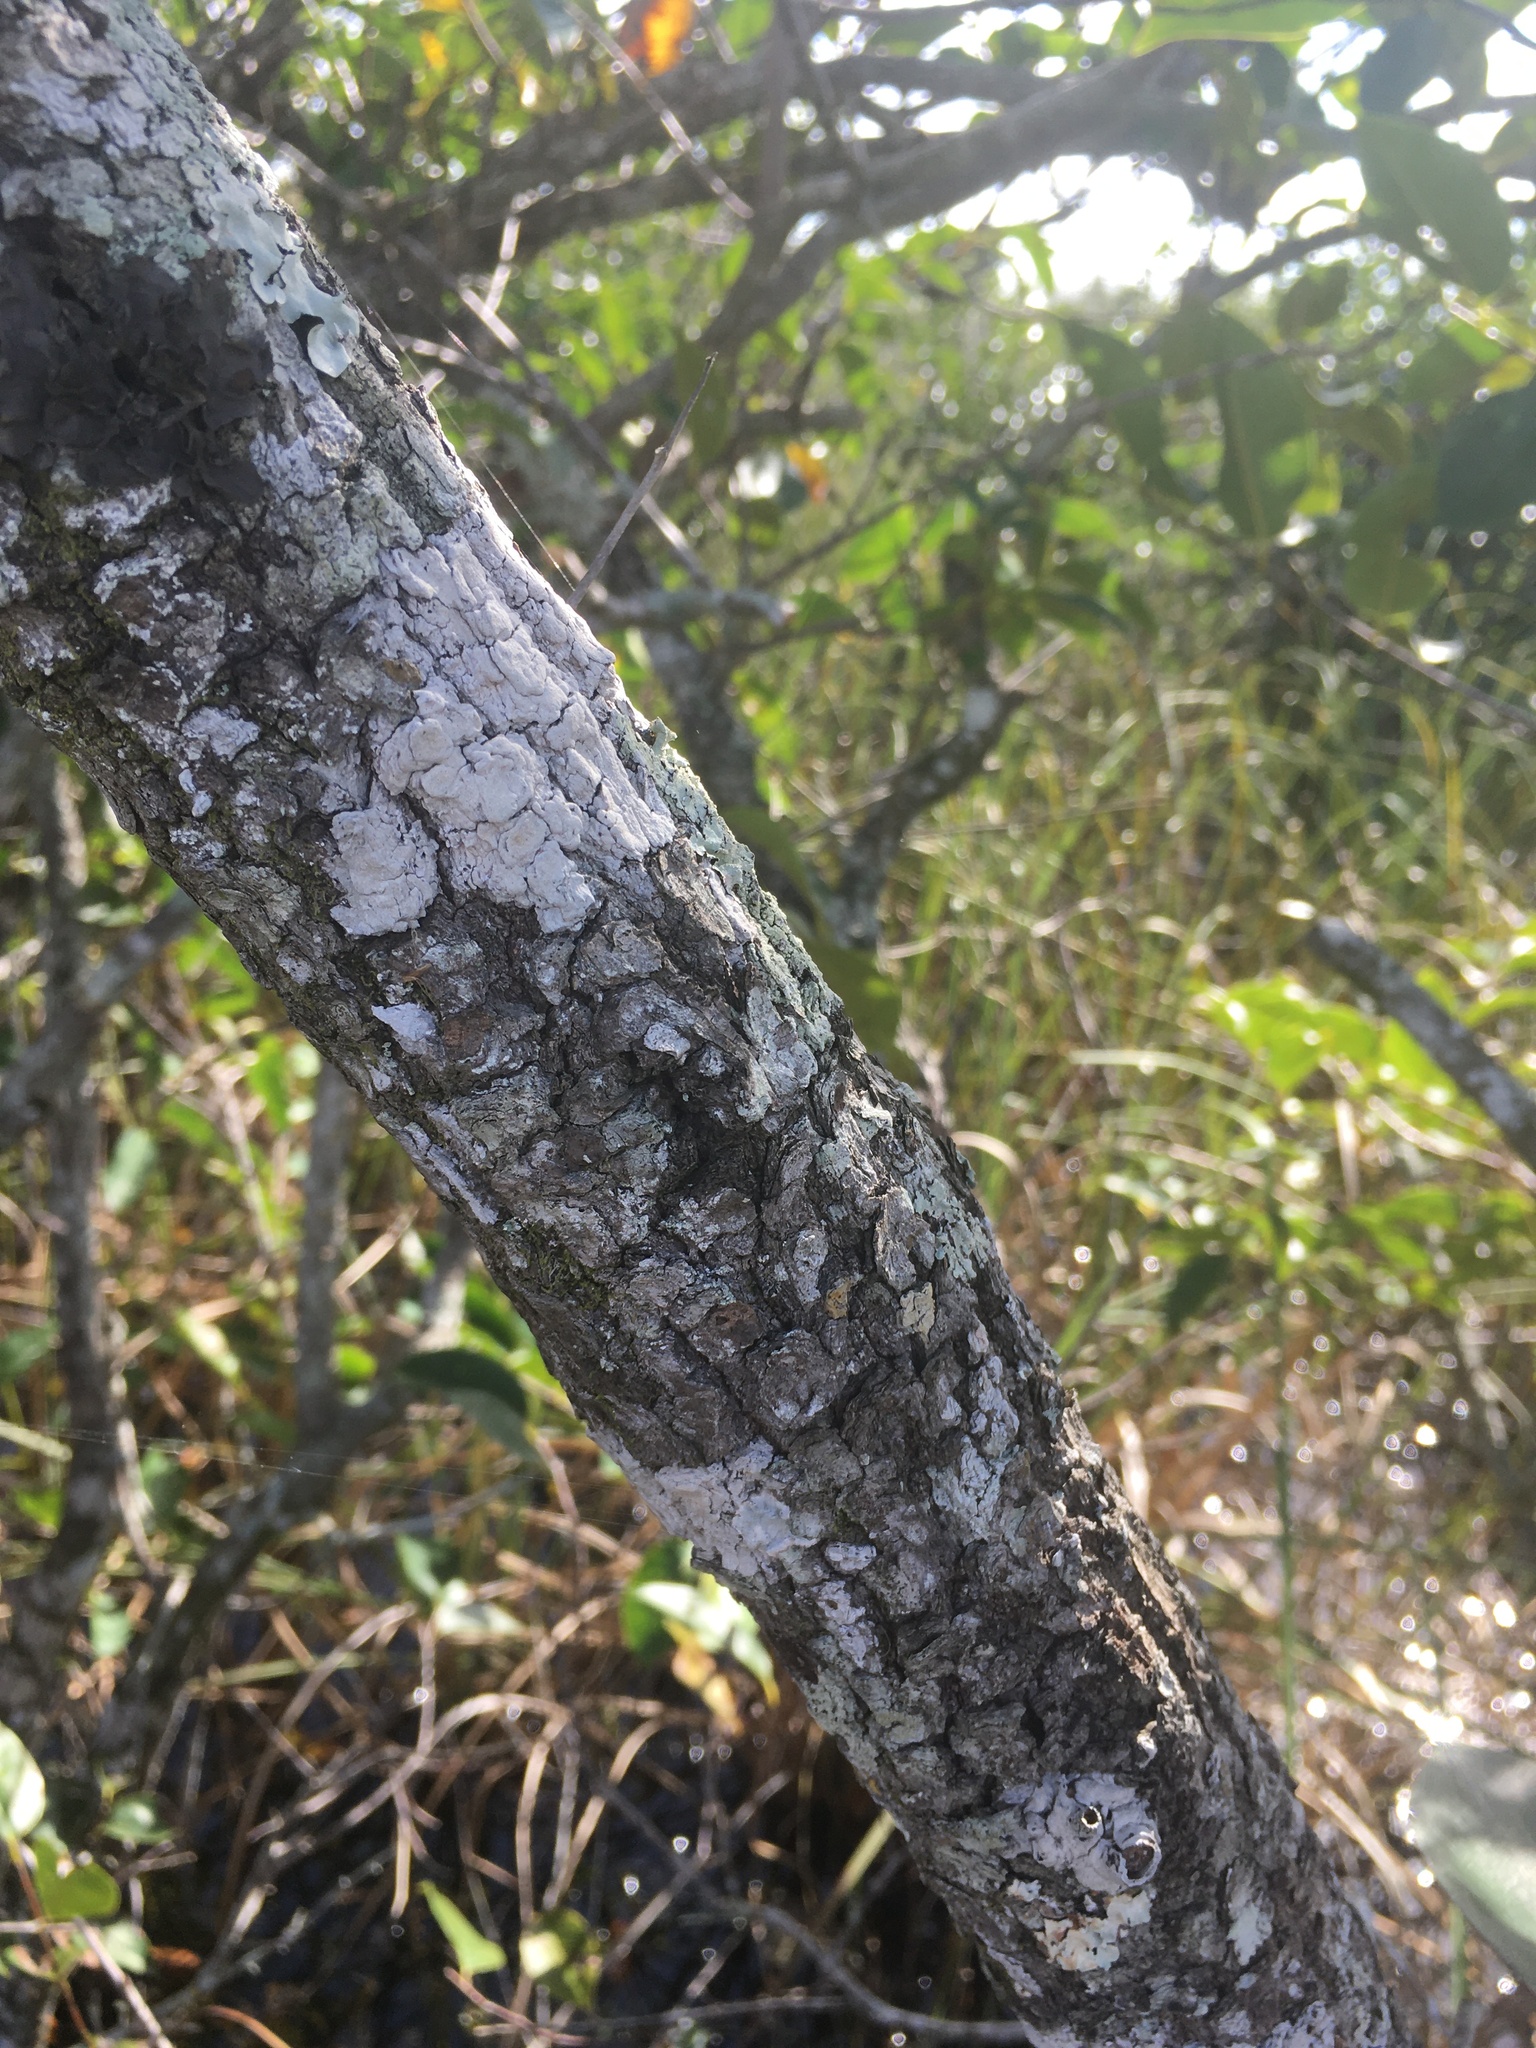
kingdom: Plantae
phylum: Tracheophyta
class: Magnoliopsida
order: Magnoliales
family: Annonaceae
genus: Annona
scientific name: Annona glabra
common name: Monkey apple
